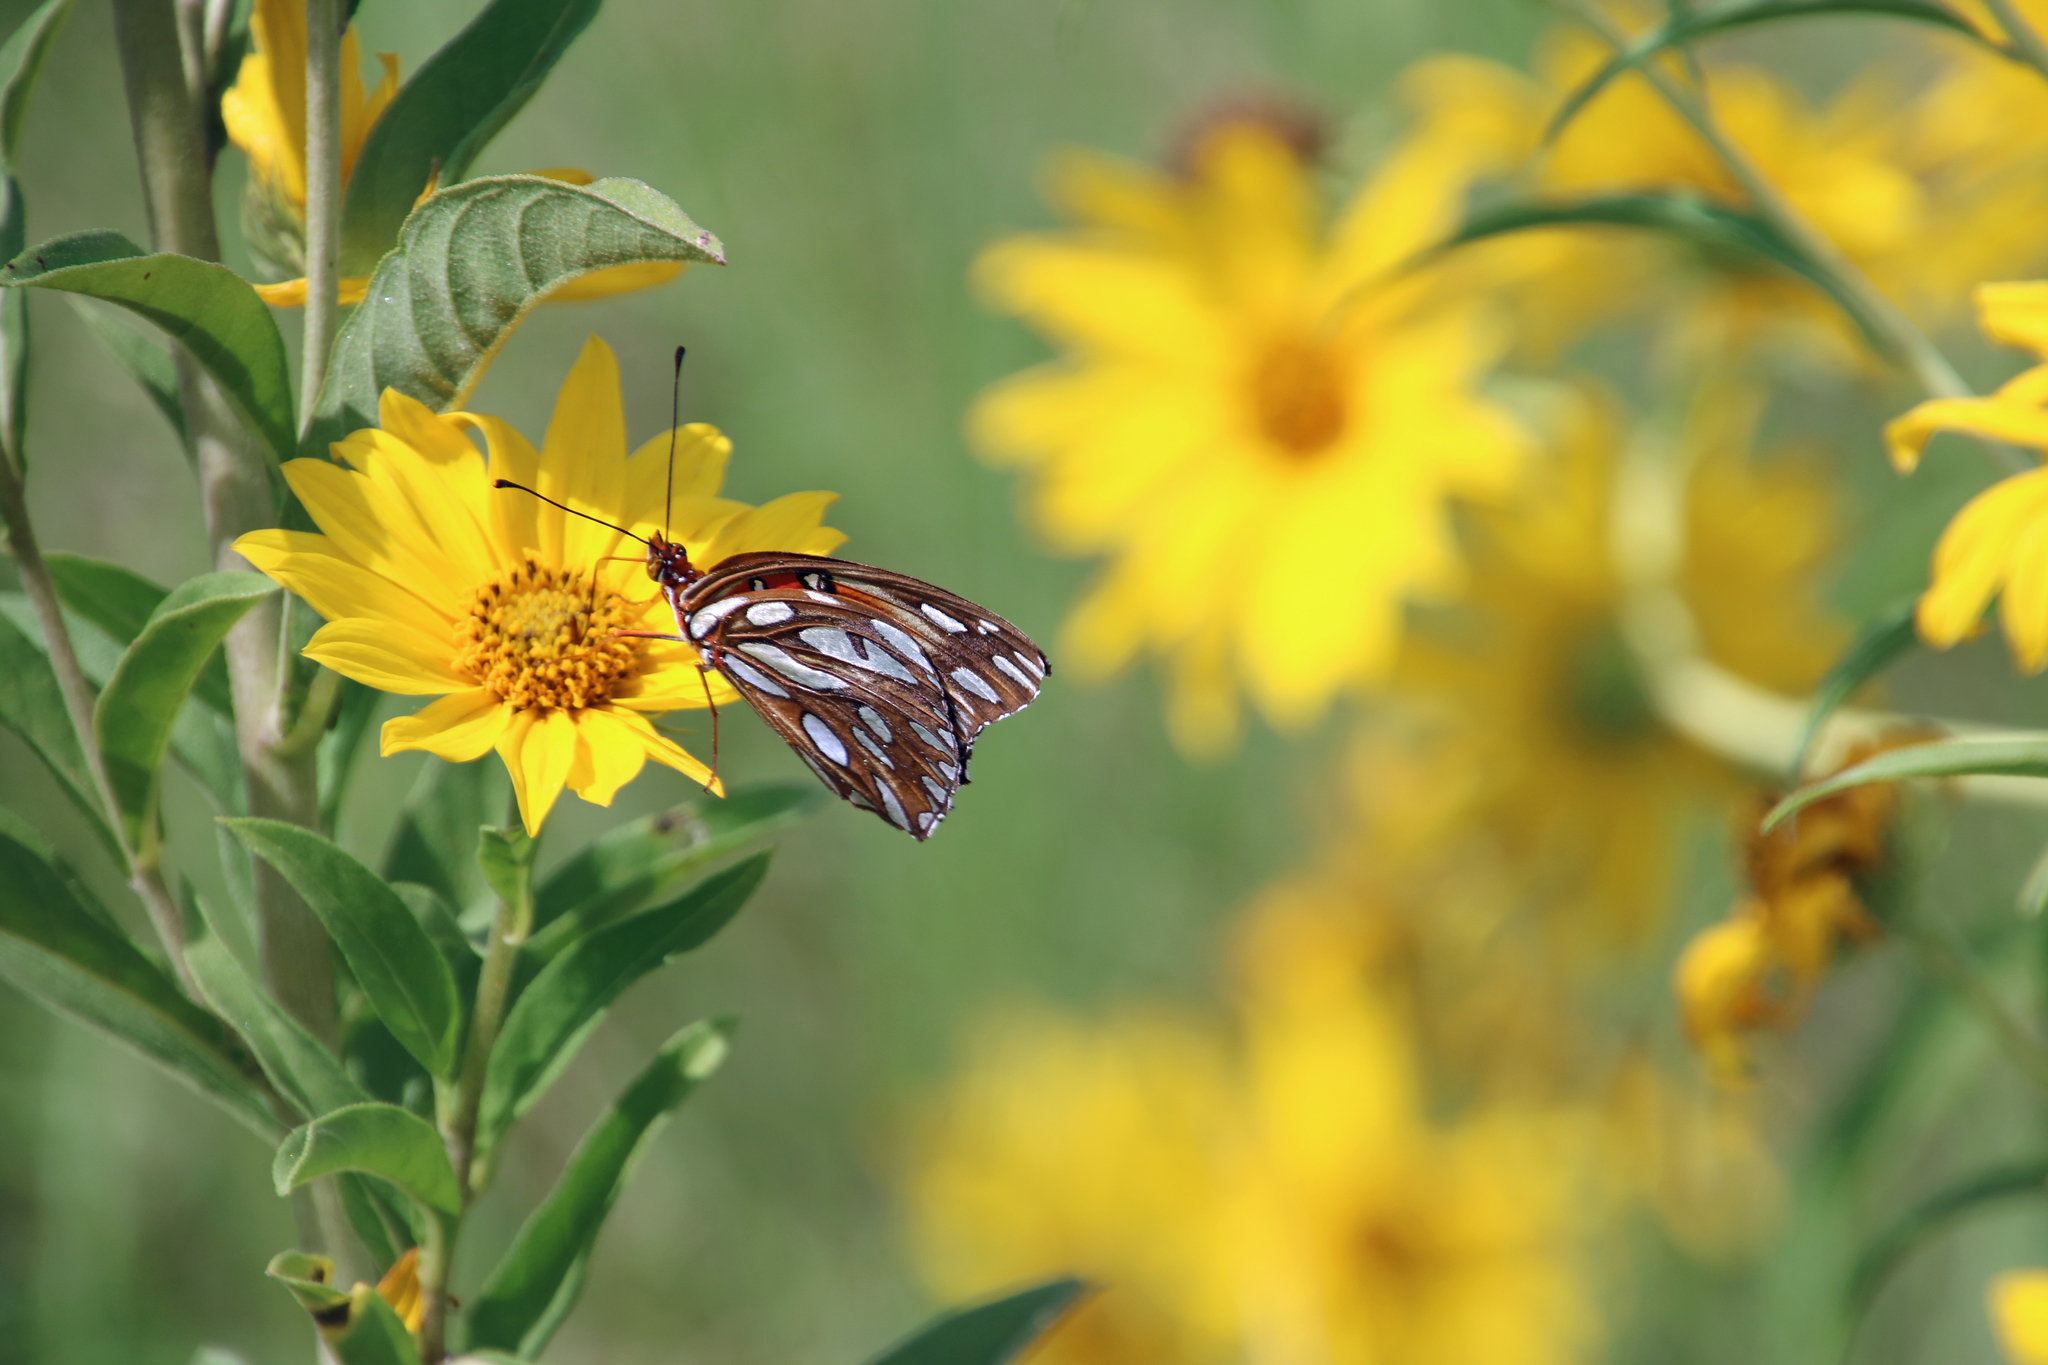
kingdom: Animalia
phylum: Arthropoda
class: Insecta
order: Lepidoptera
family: Nymphalidae
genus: Dione
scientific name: Dione vanillae
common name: Gulf fritillary
